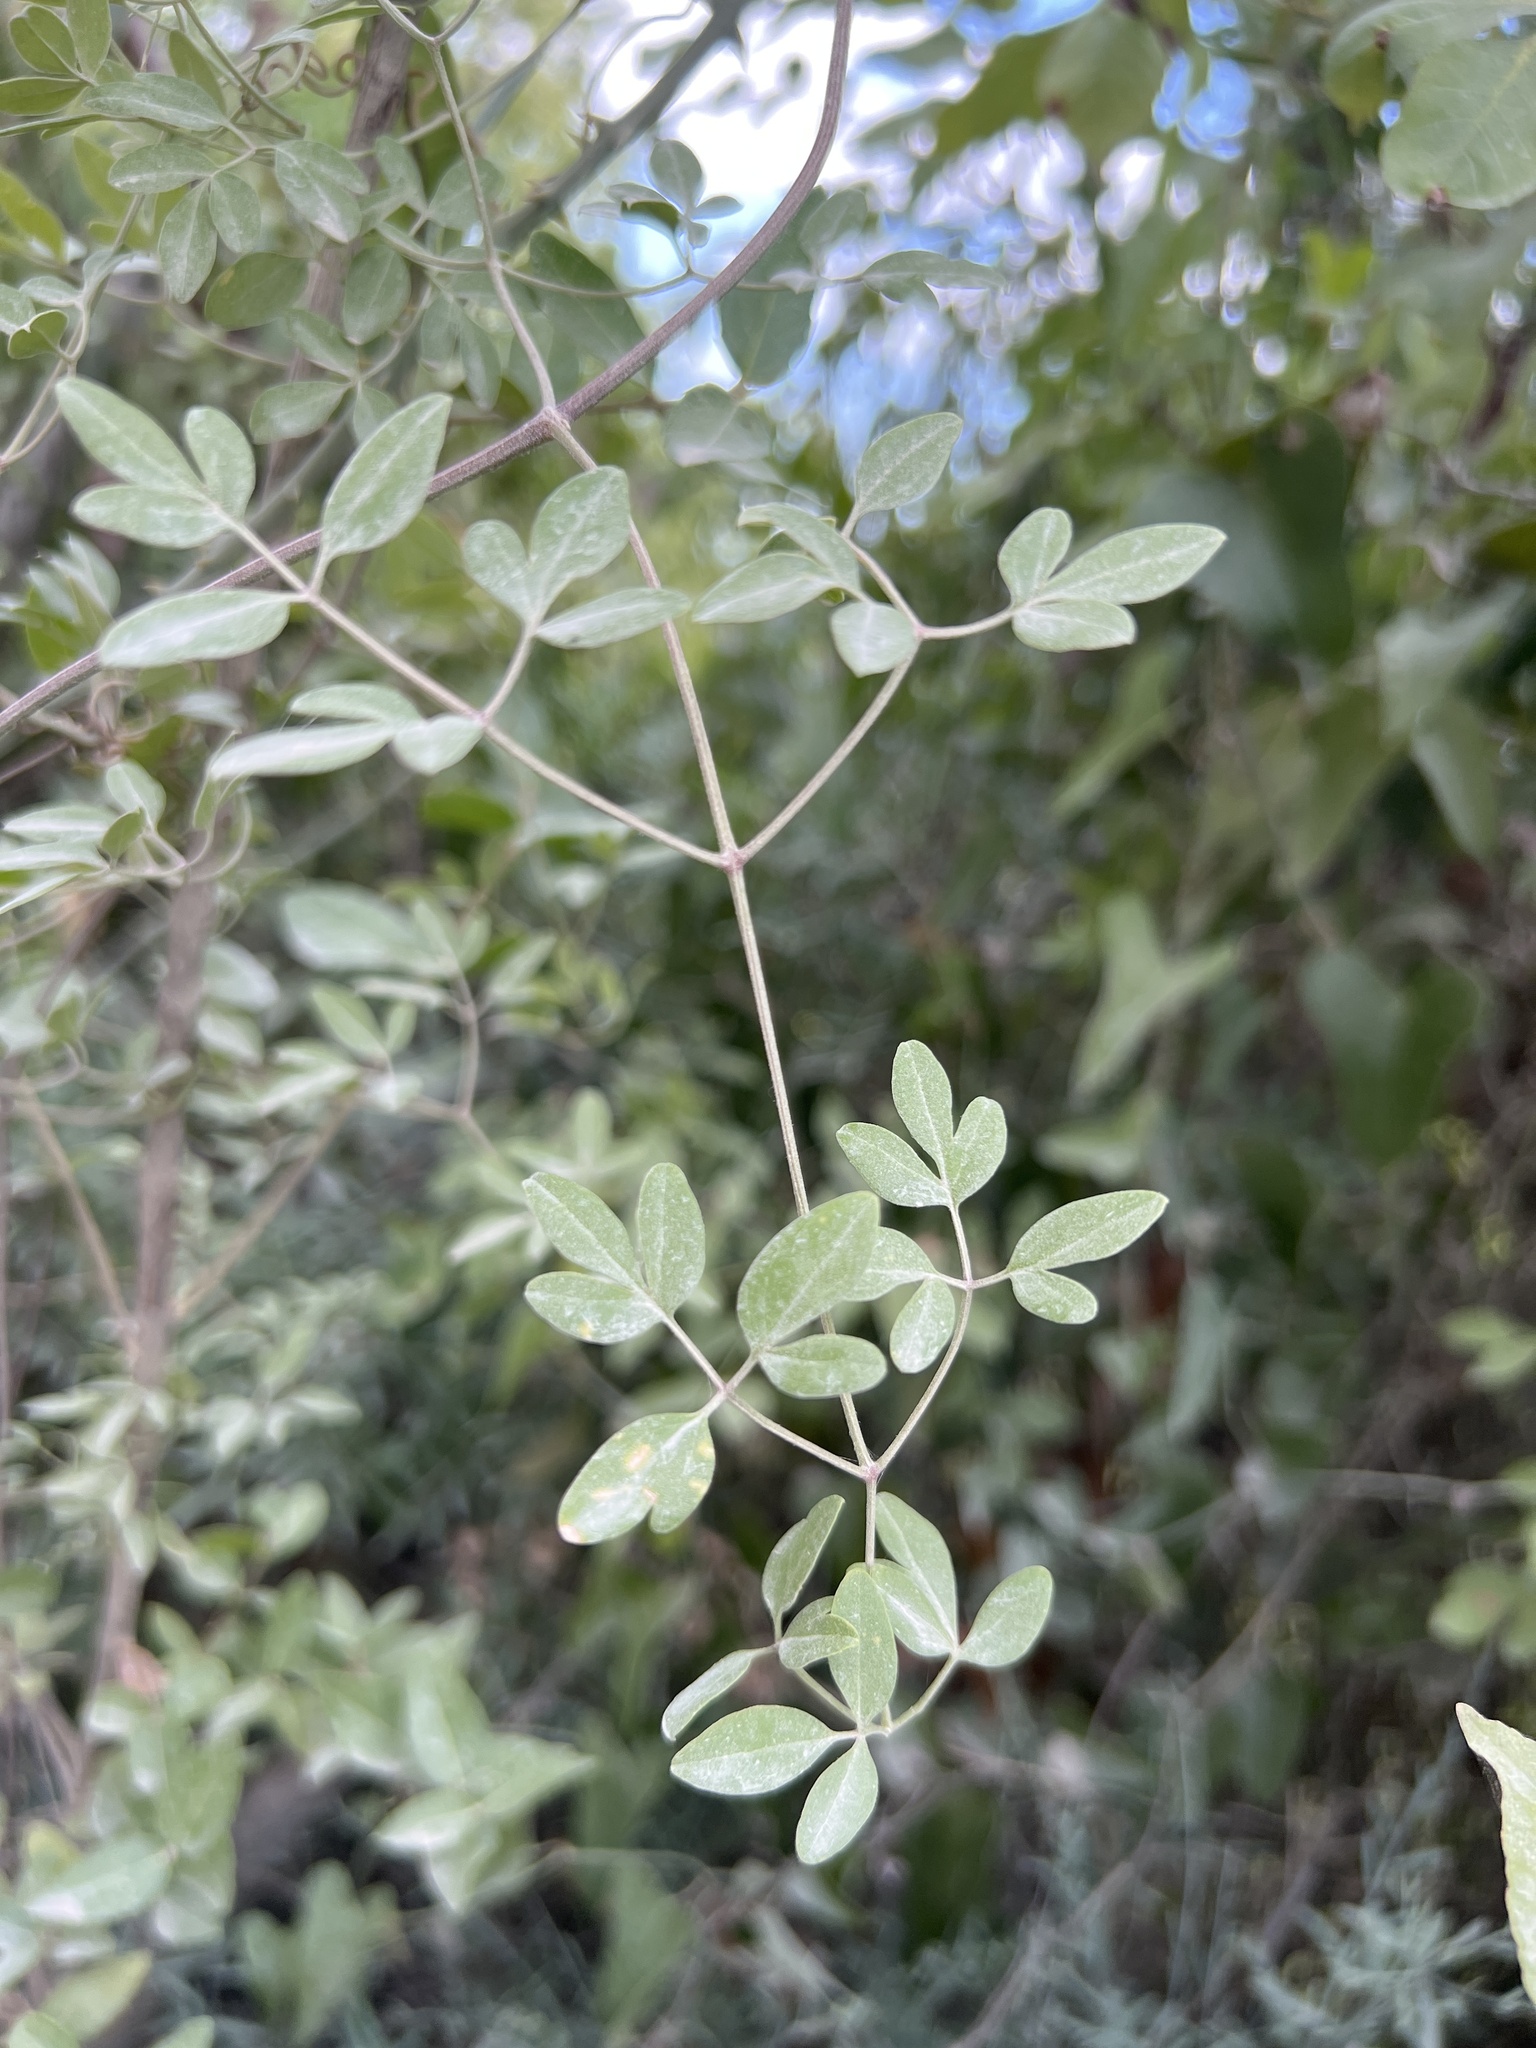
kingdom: Plantae
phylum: Tracheophyta
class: Magnoliopsida
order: Ranunculales
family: Ranunculaceae
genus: Clematis
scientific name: Clematis flammula
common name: Virgin's-bower
